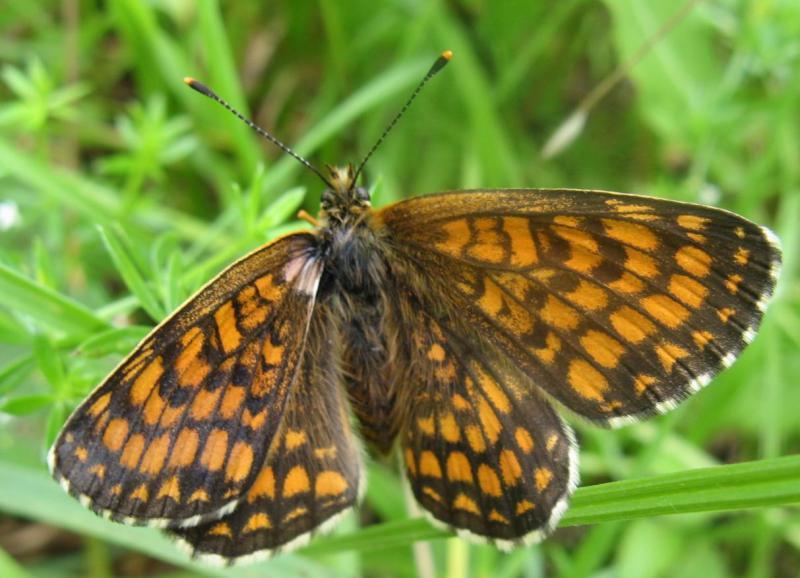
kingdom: Animalia
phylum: Arthropoda
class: Insecta
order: Lepidoptera
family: Nymphalidae
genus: Melitaea
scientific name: Melitaea athalia
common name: Heath fritillary
